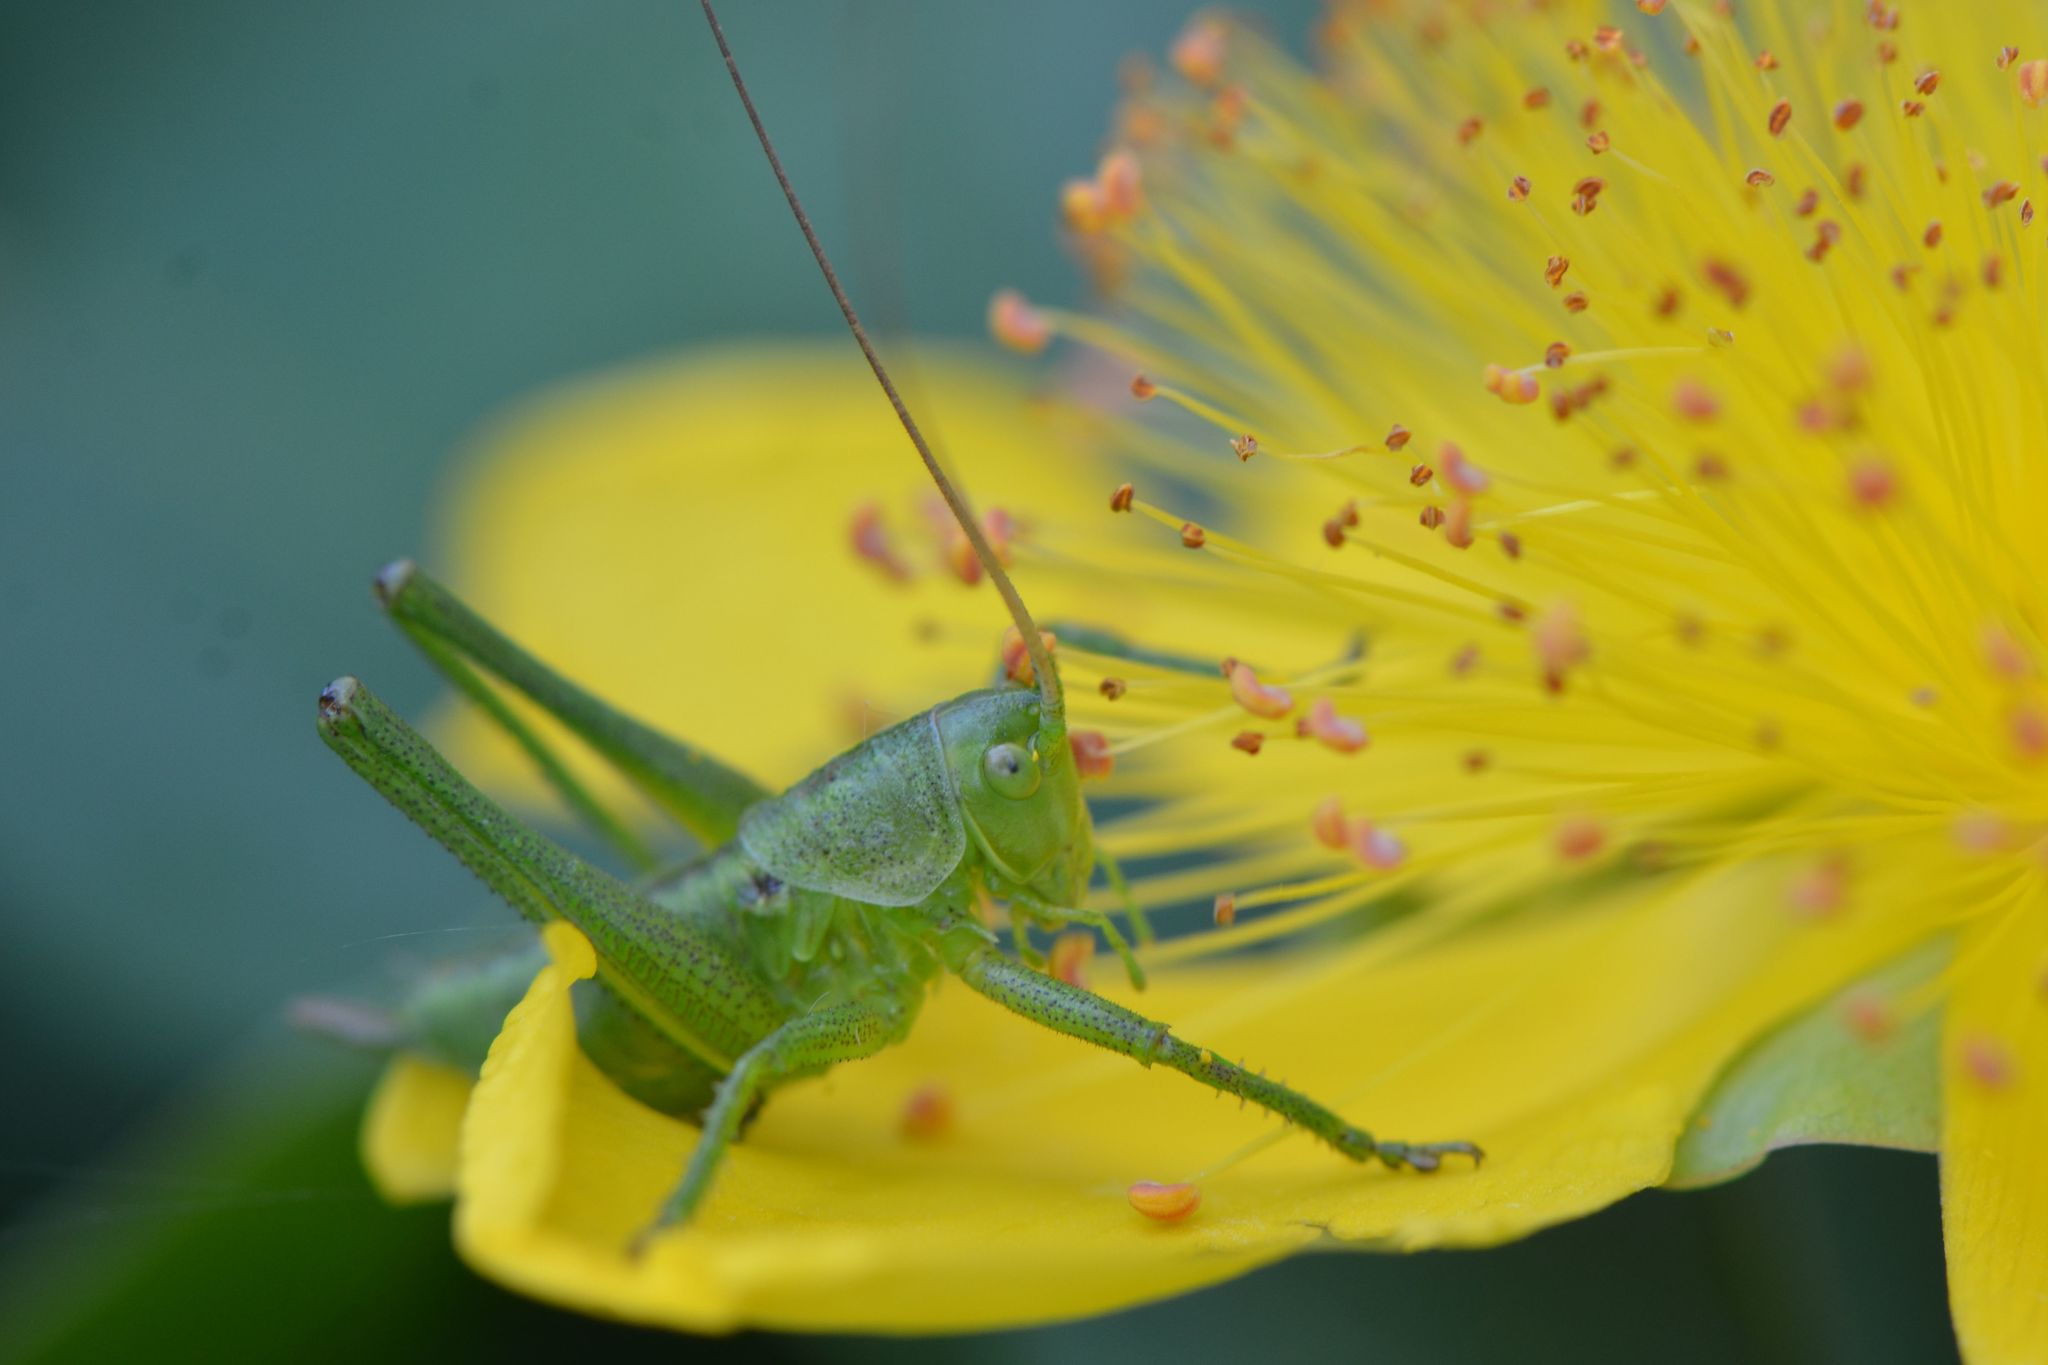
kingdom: Animalia
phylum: Arthropoda
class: Insecta
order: Orthoptera
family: Tettigoniidae
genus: Tettigonia
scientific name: Tettigonia viridissima
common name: Great green bush-cricket
